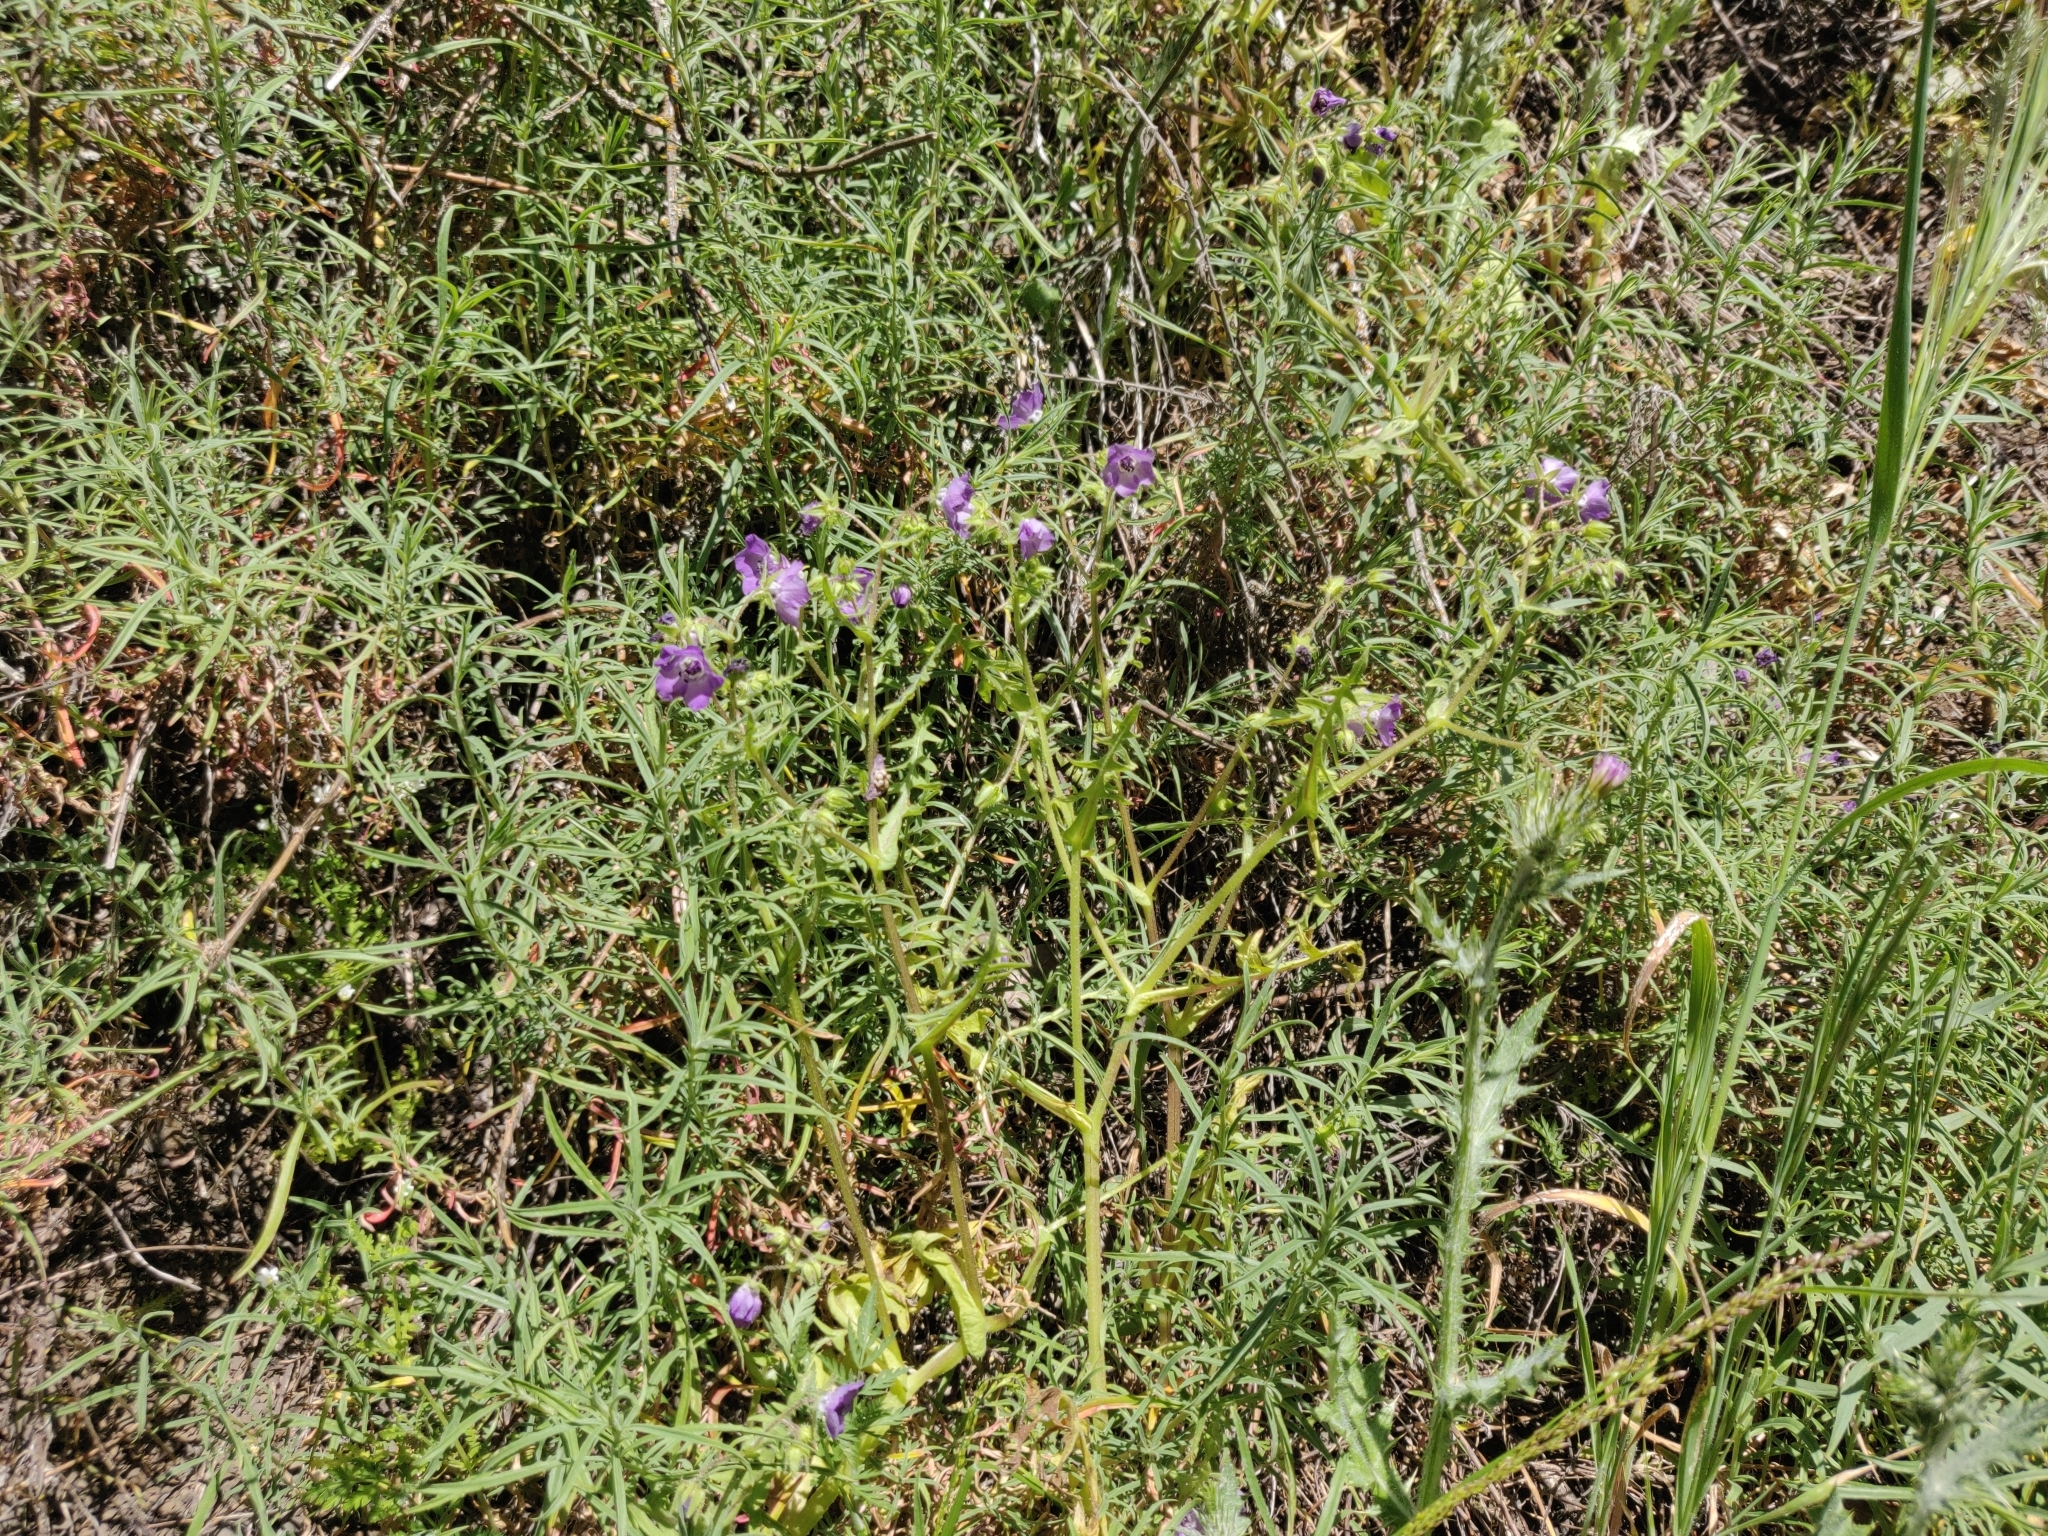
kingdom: Plantae
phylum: Tracheophyta
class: Magnoliopsida
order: Boraginales
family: Hydrophyllaceae
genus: Pholistoma
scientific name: Pholistoma auritum
